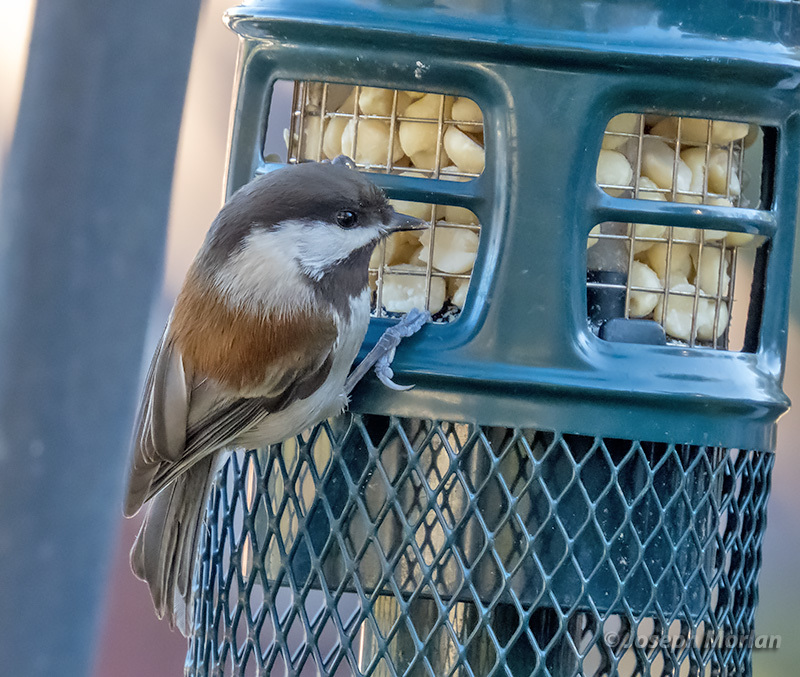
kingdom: Animalia
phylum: Chordata
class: Aves
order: Passeriformes
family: Paridae
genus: Poecile
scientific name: Poecile rufescens
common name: Chestnut-backed chickadee
